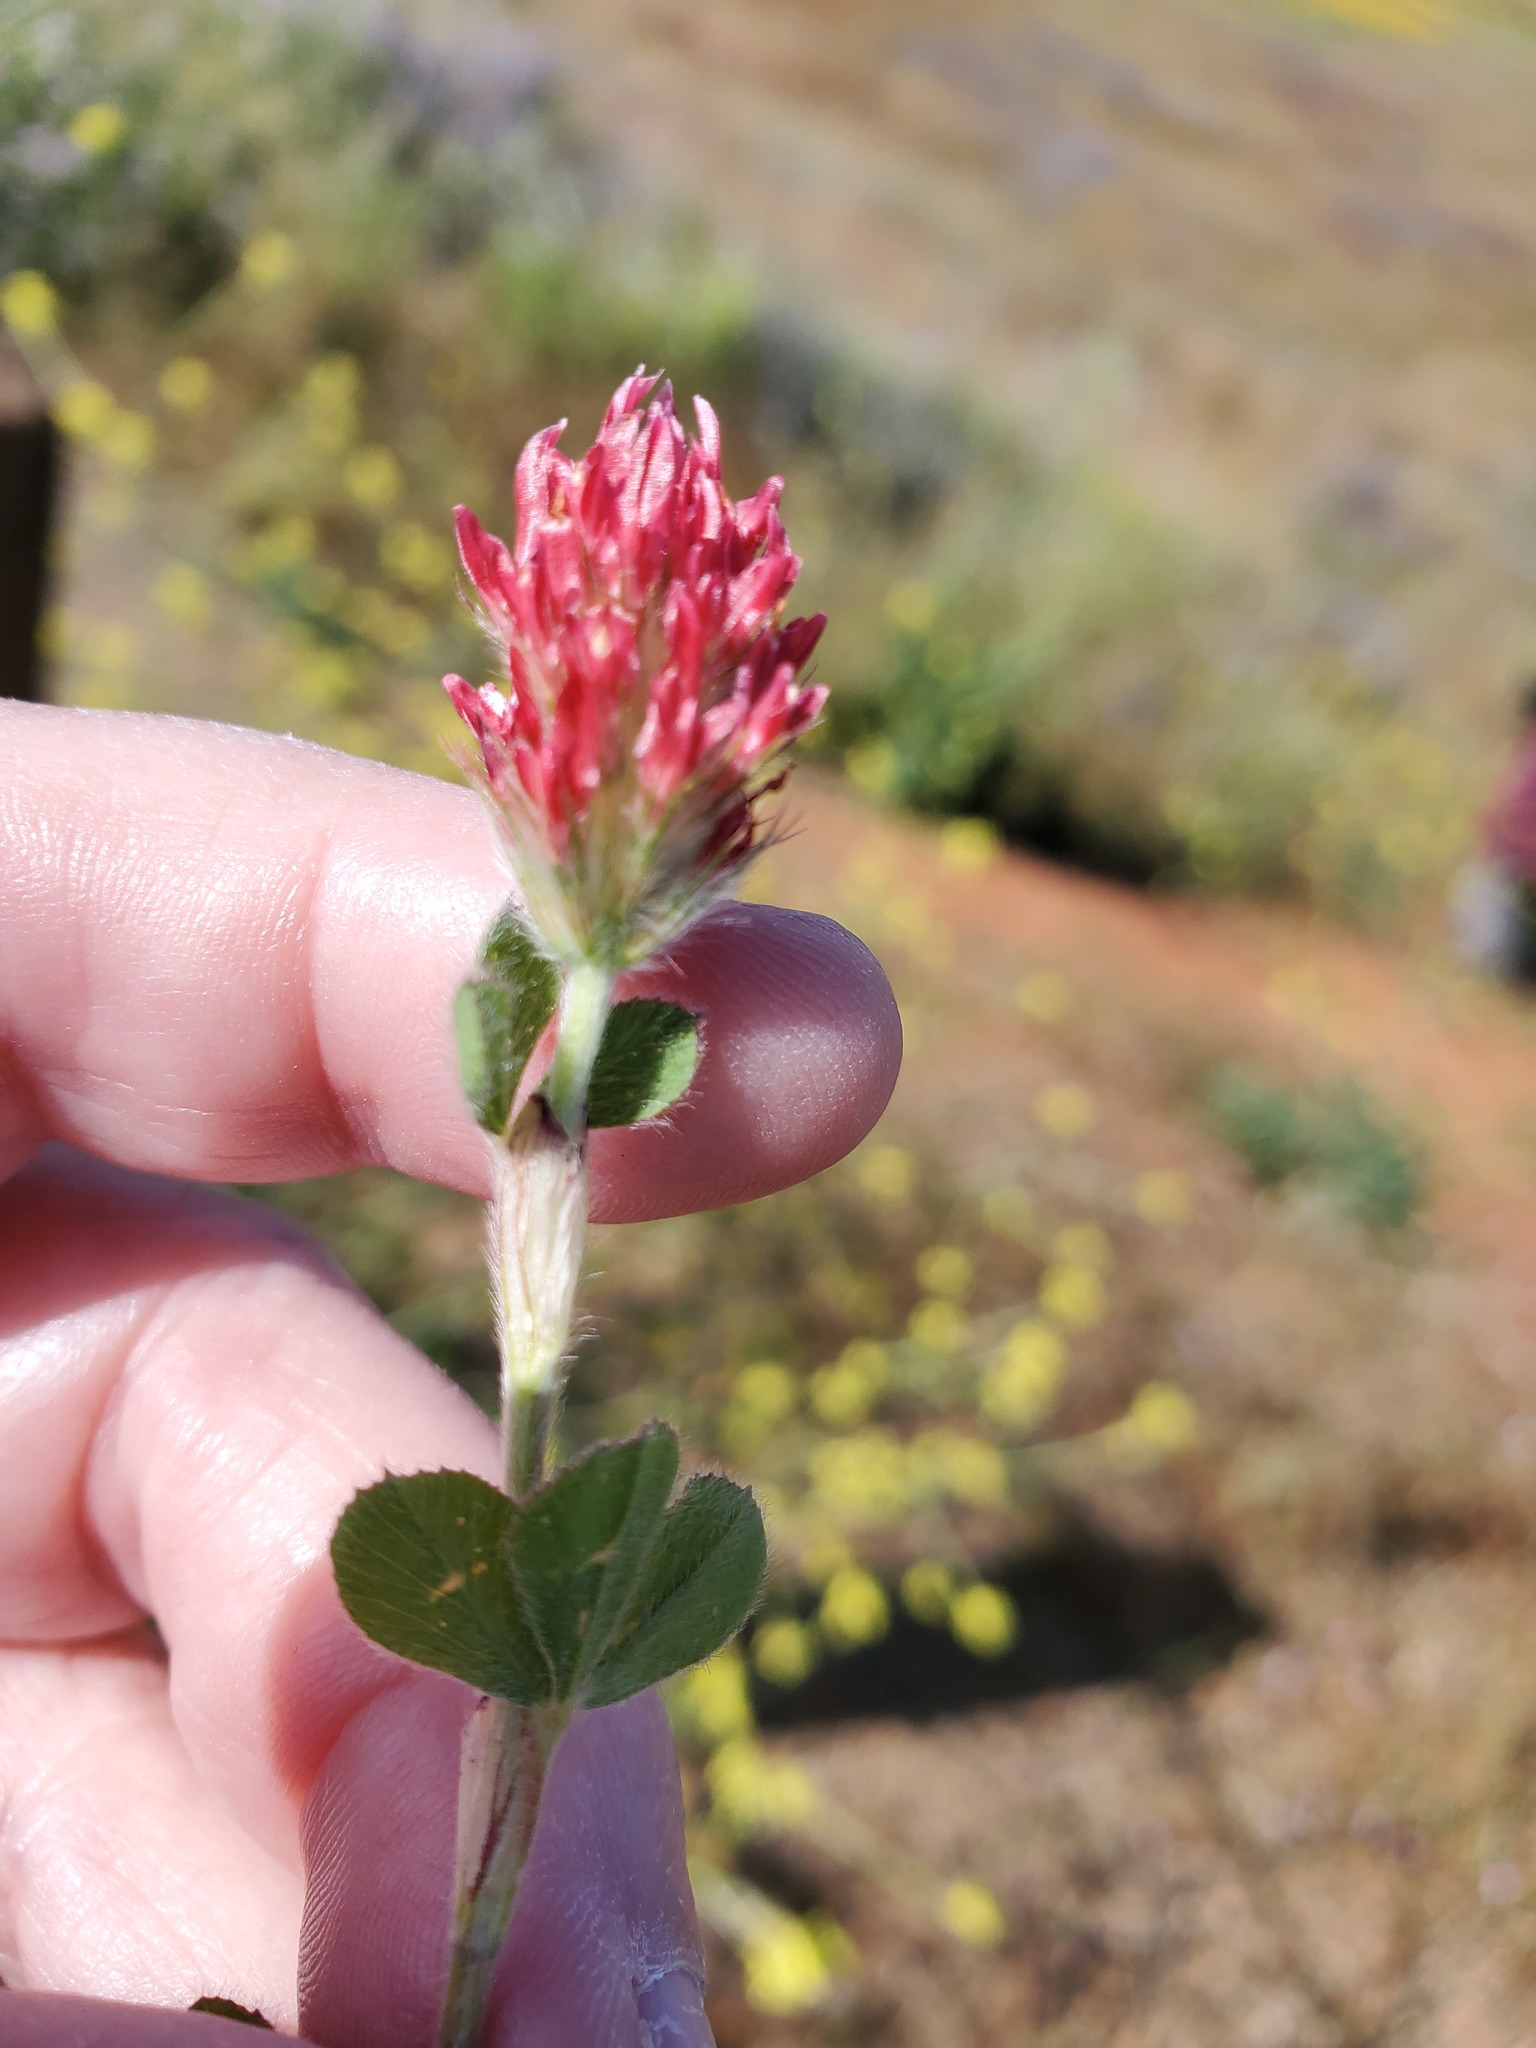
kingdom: Plantae
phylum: Tracheophyta
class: Magnoliopsida
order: Fabales
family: Fabaceae
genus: Trifolium
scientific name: Trifolium incarnatum
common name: Crimson clover
